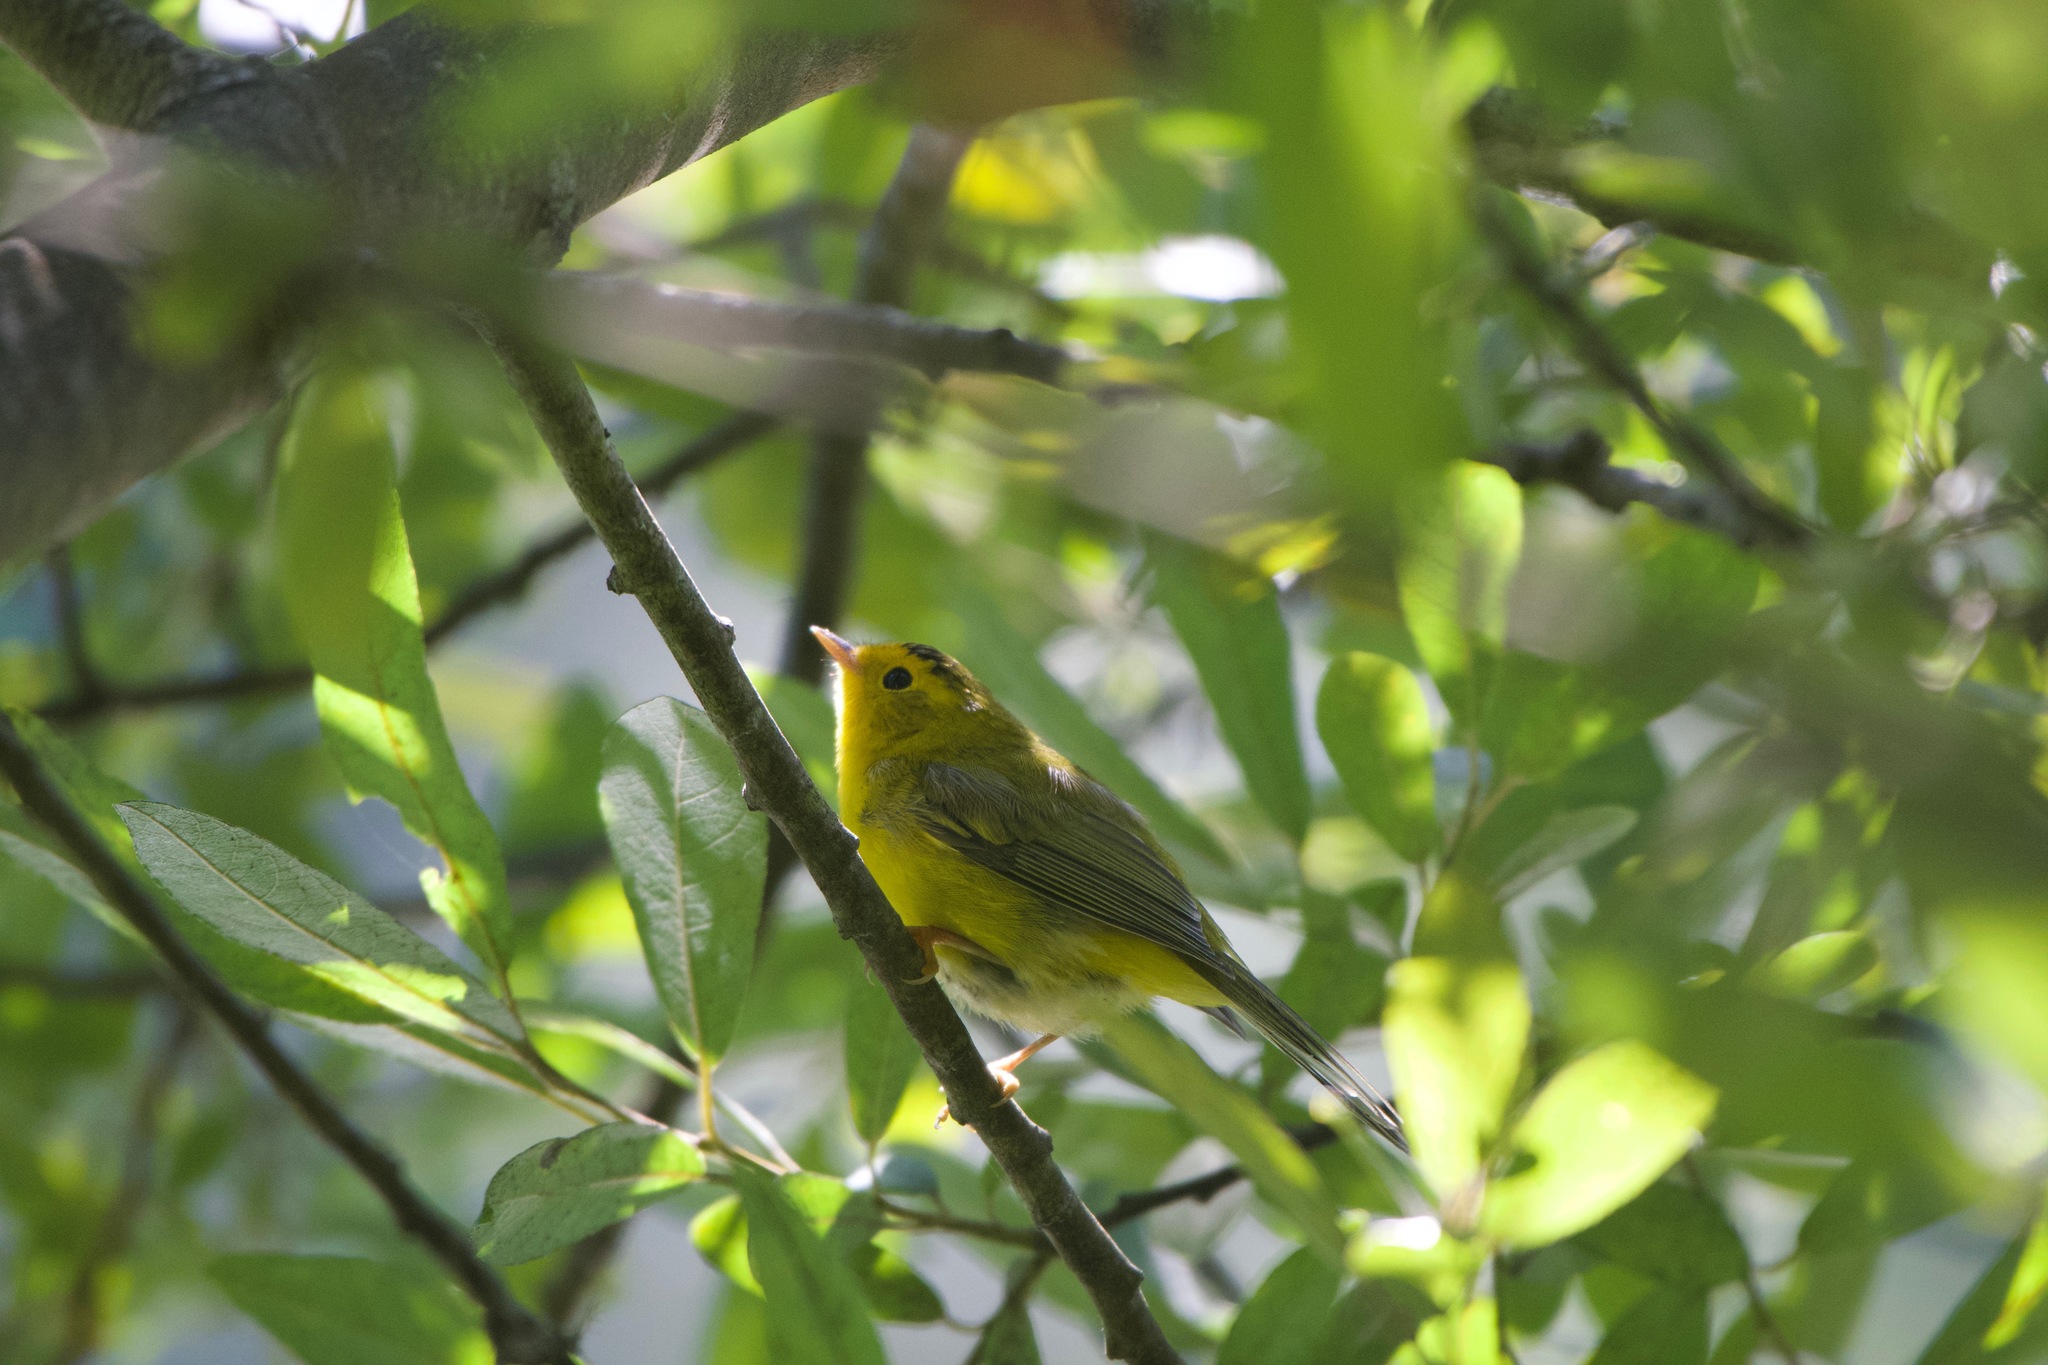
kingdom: Animalia
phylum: Chordata
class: Aves
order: Passeriformes
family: Parulidae
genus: Cardellina
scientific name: Cardellina pusilla
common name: Wilson's warbler
